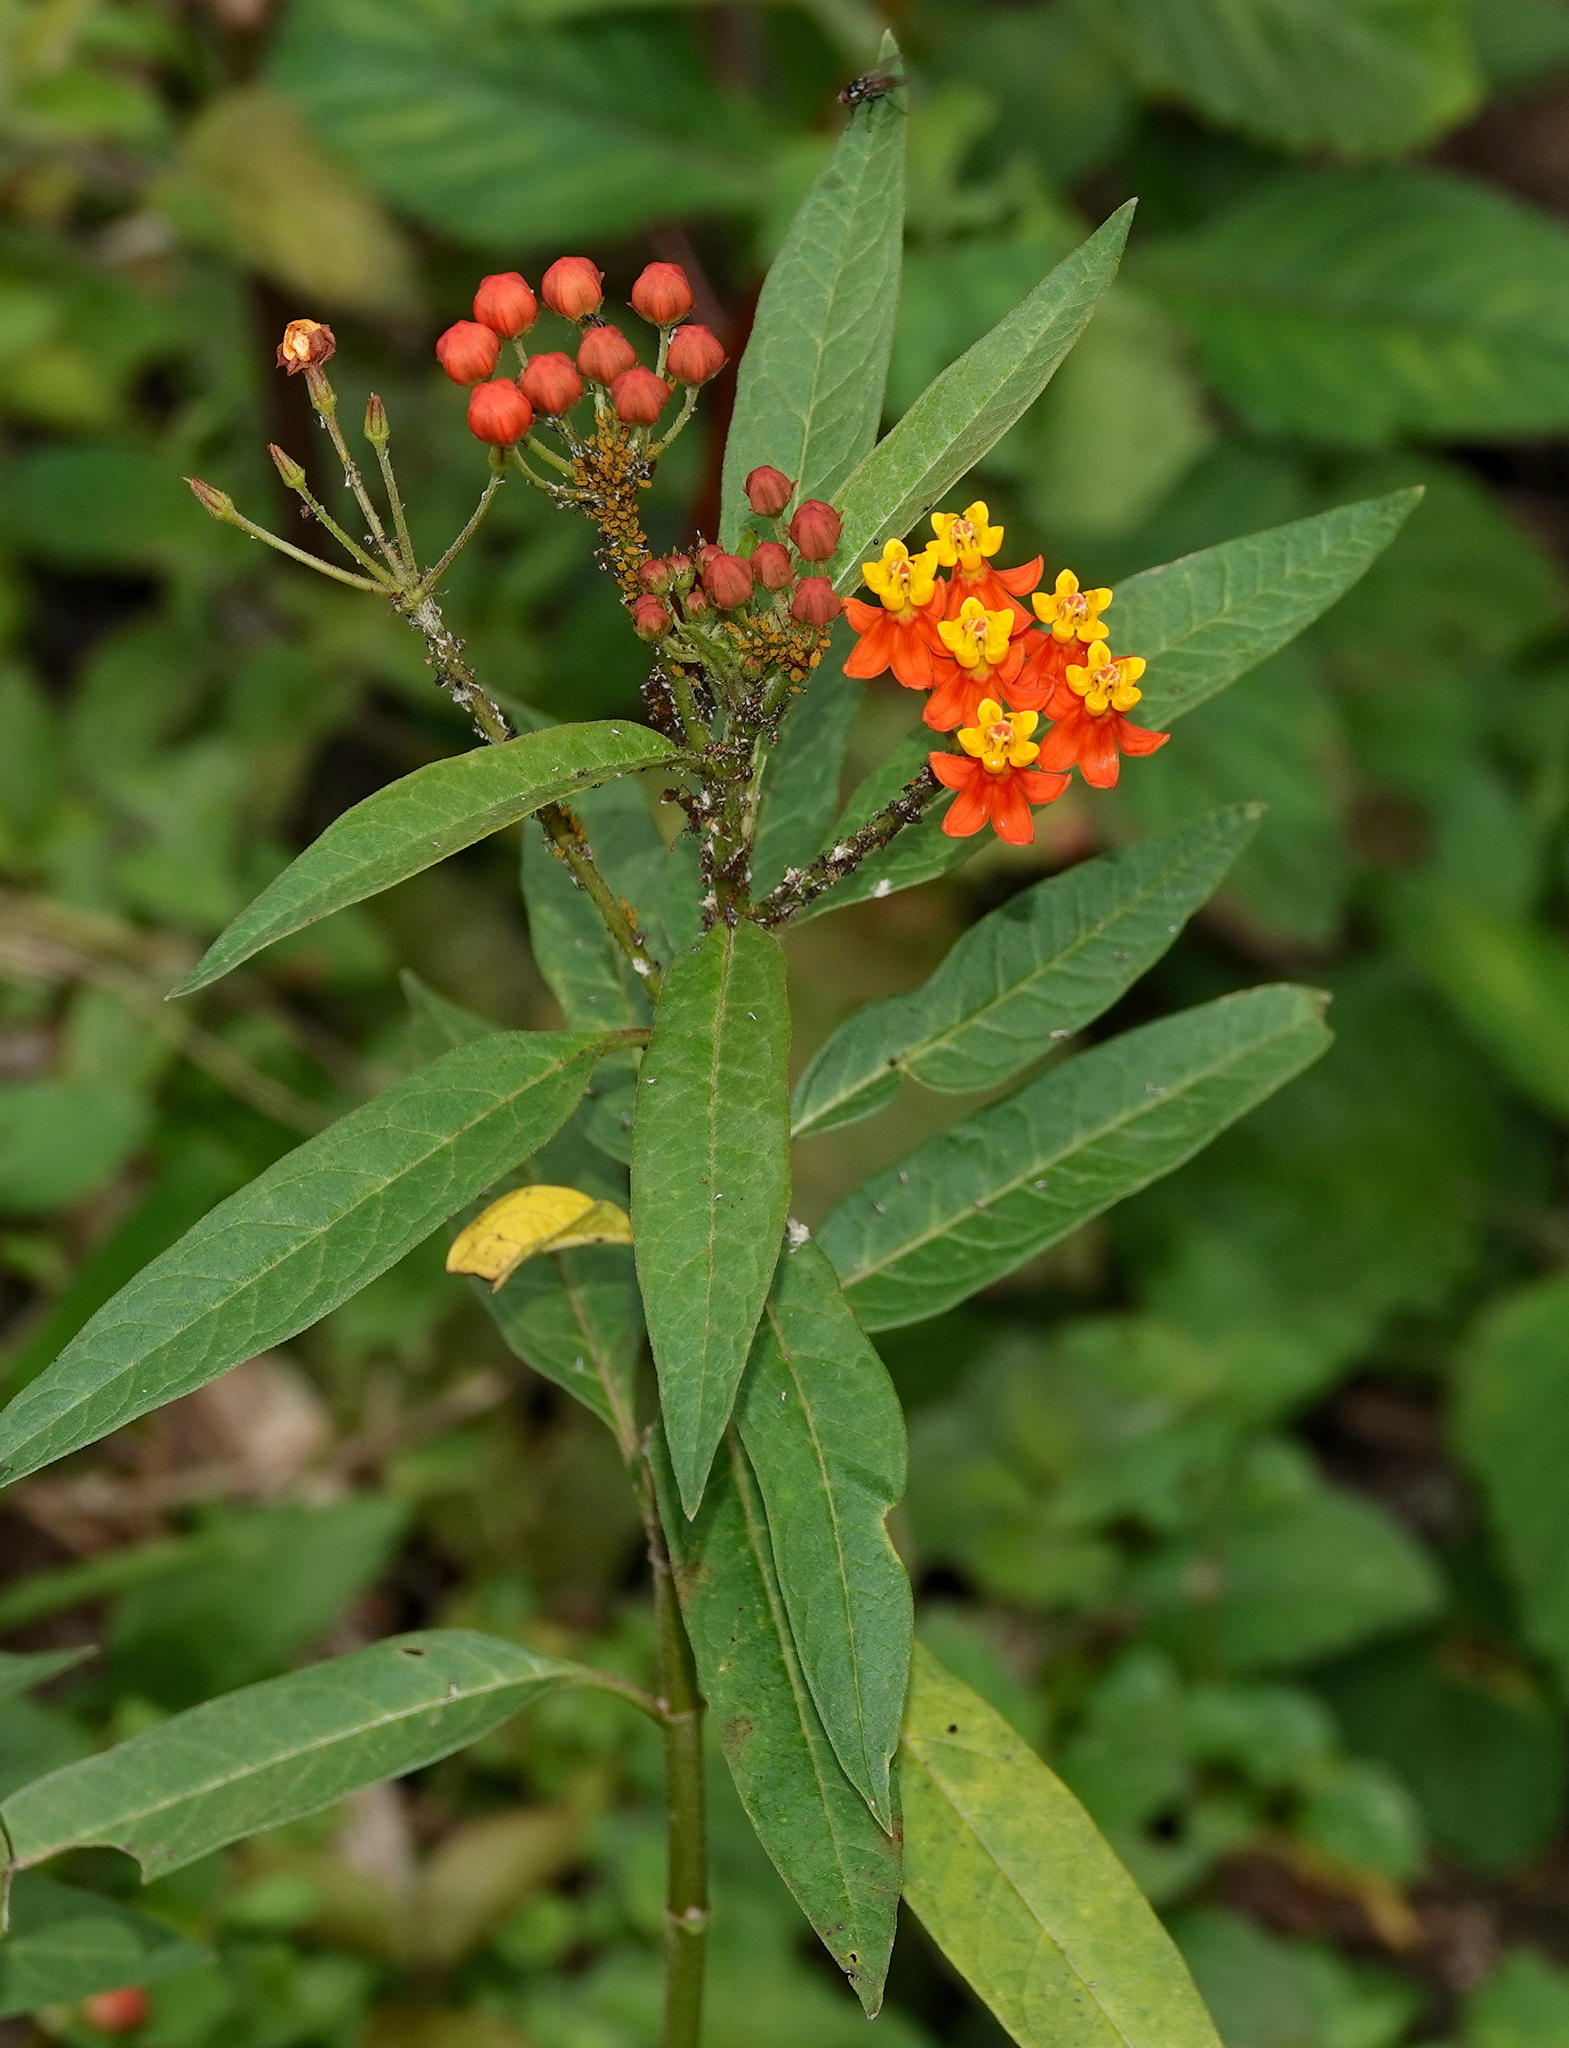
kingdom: Plantae
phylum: Tracheophyta
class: Magnoliopsida
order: Gentianales
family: Apocynaceae
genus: Asclepias
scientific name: Asclepias curassavica
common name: Bloodflower
